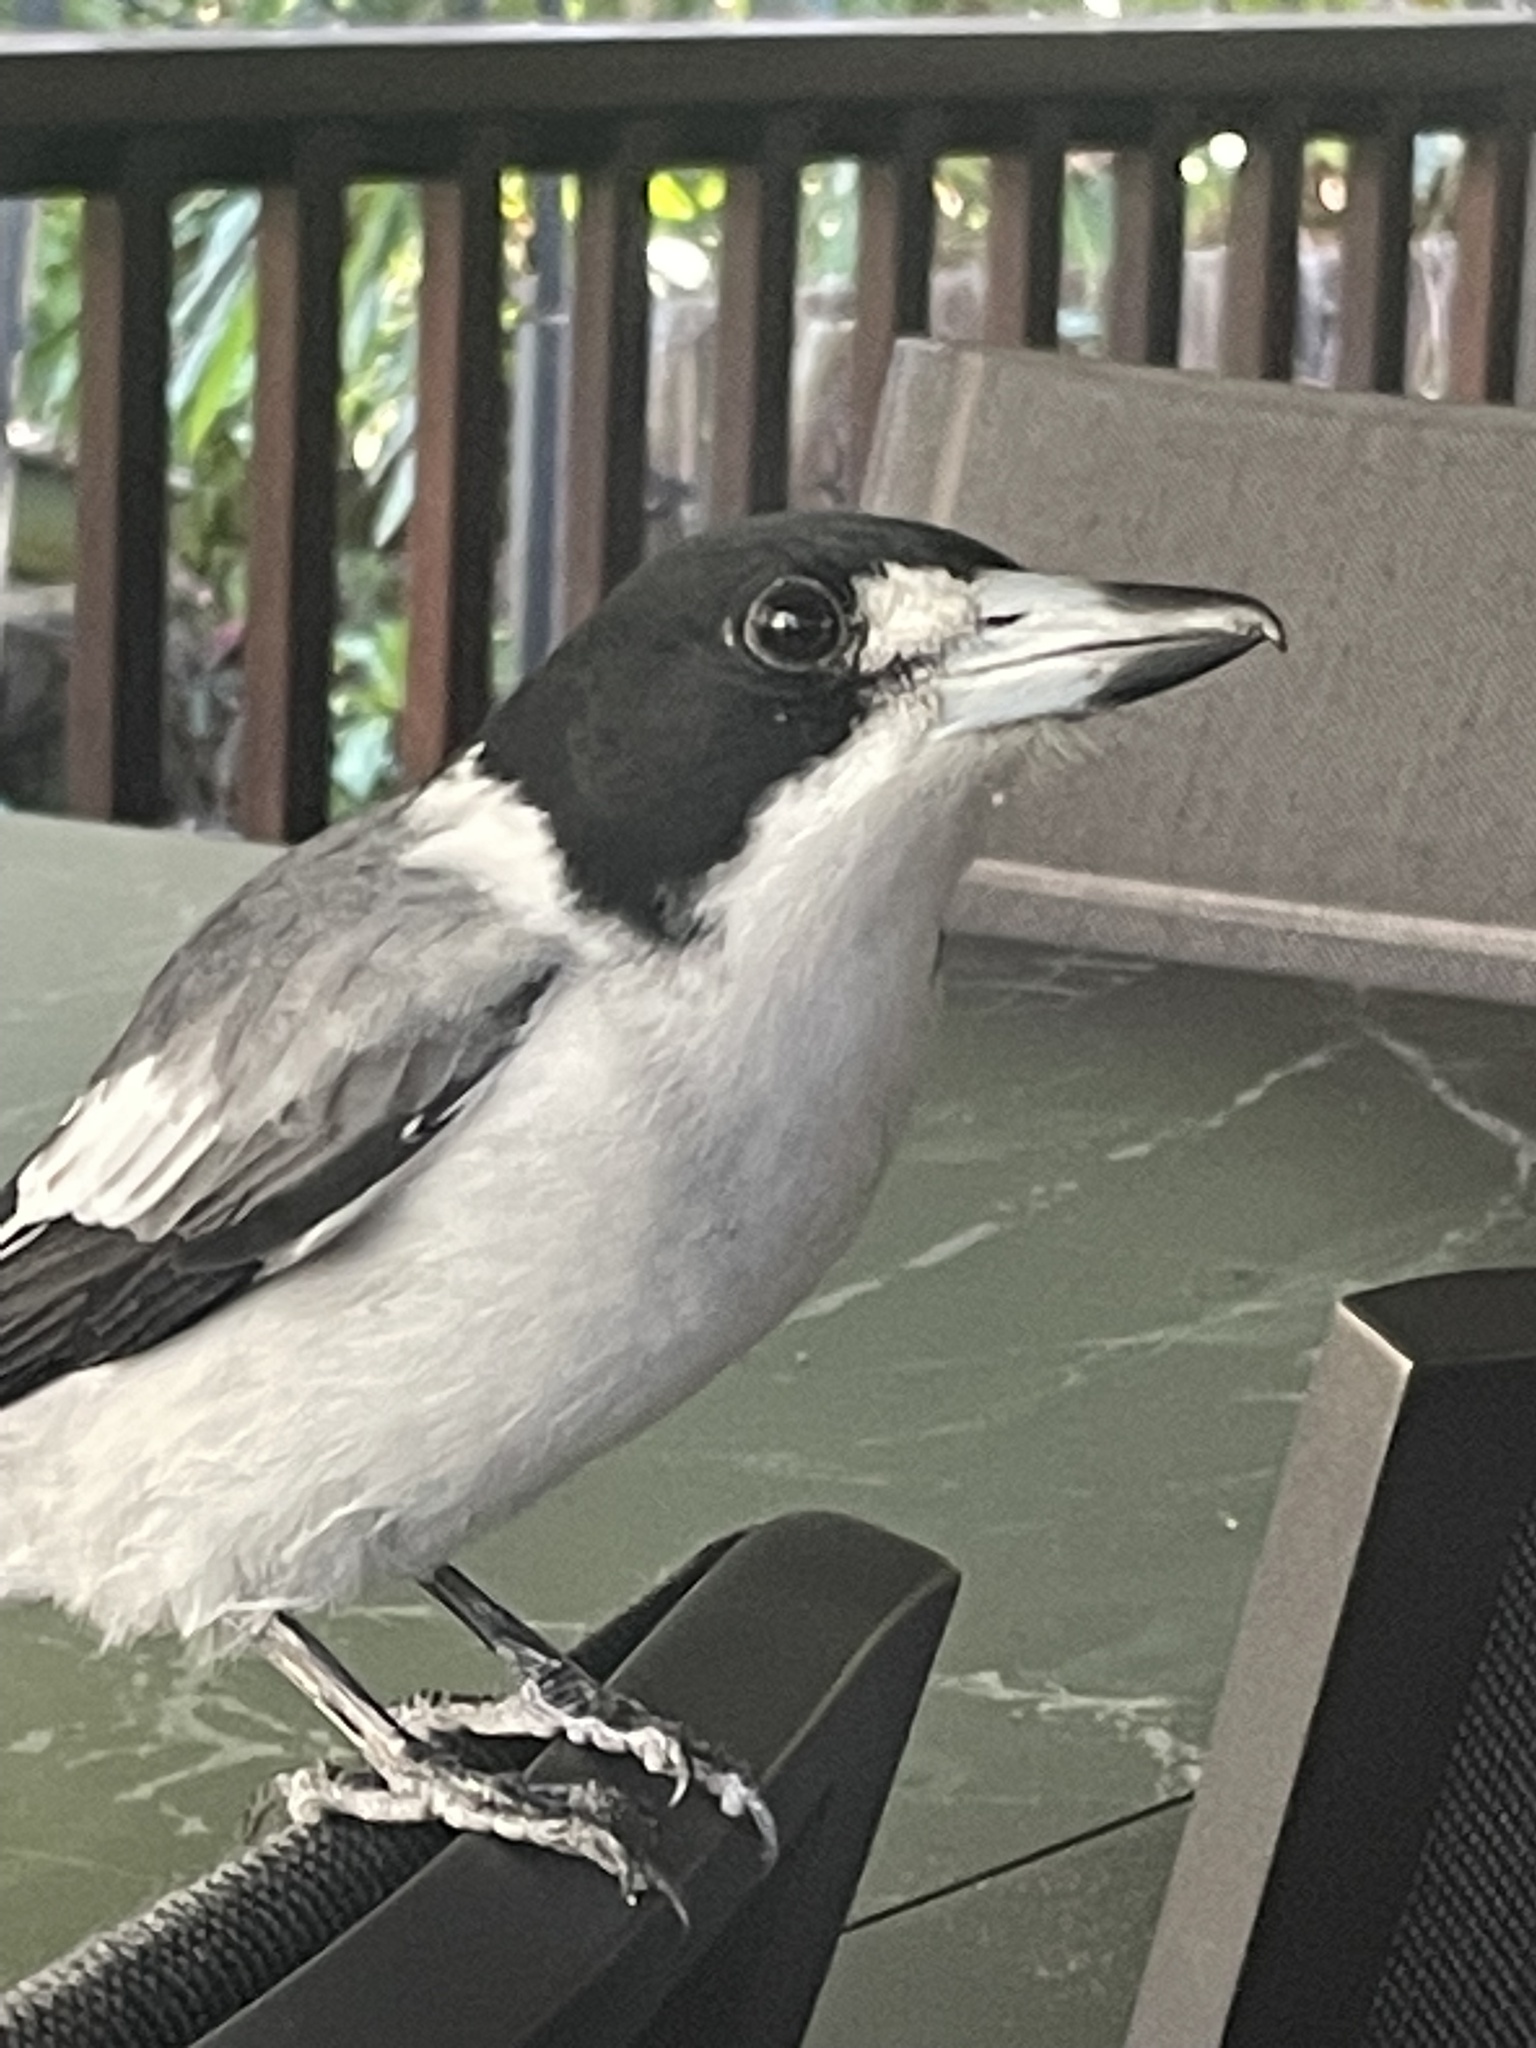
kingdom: Animalia
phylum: Chordata
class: Aves
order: Passeriformes
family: Cracticidae
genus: Cracticus
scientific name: Cracticus torquatus
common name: Grey butcherbird
